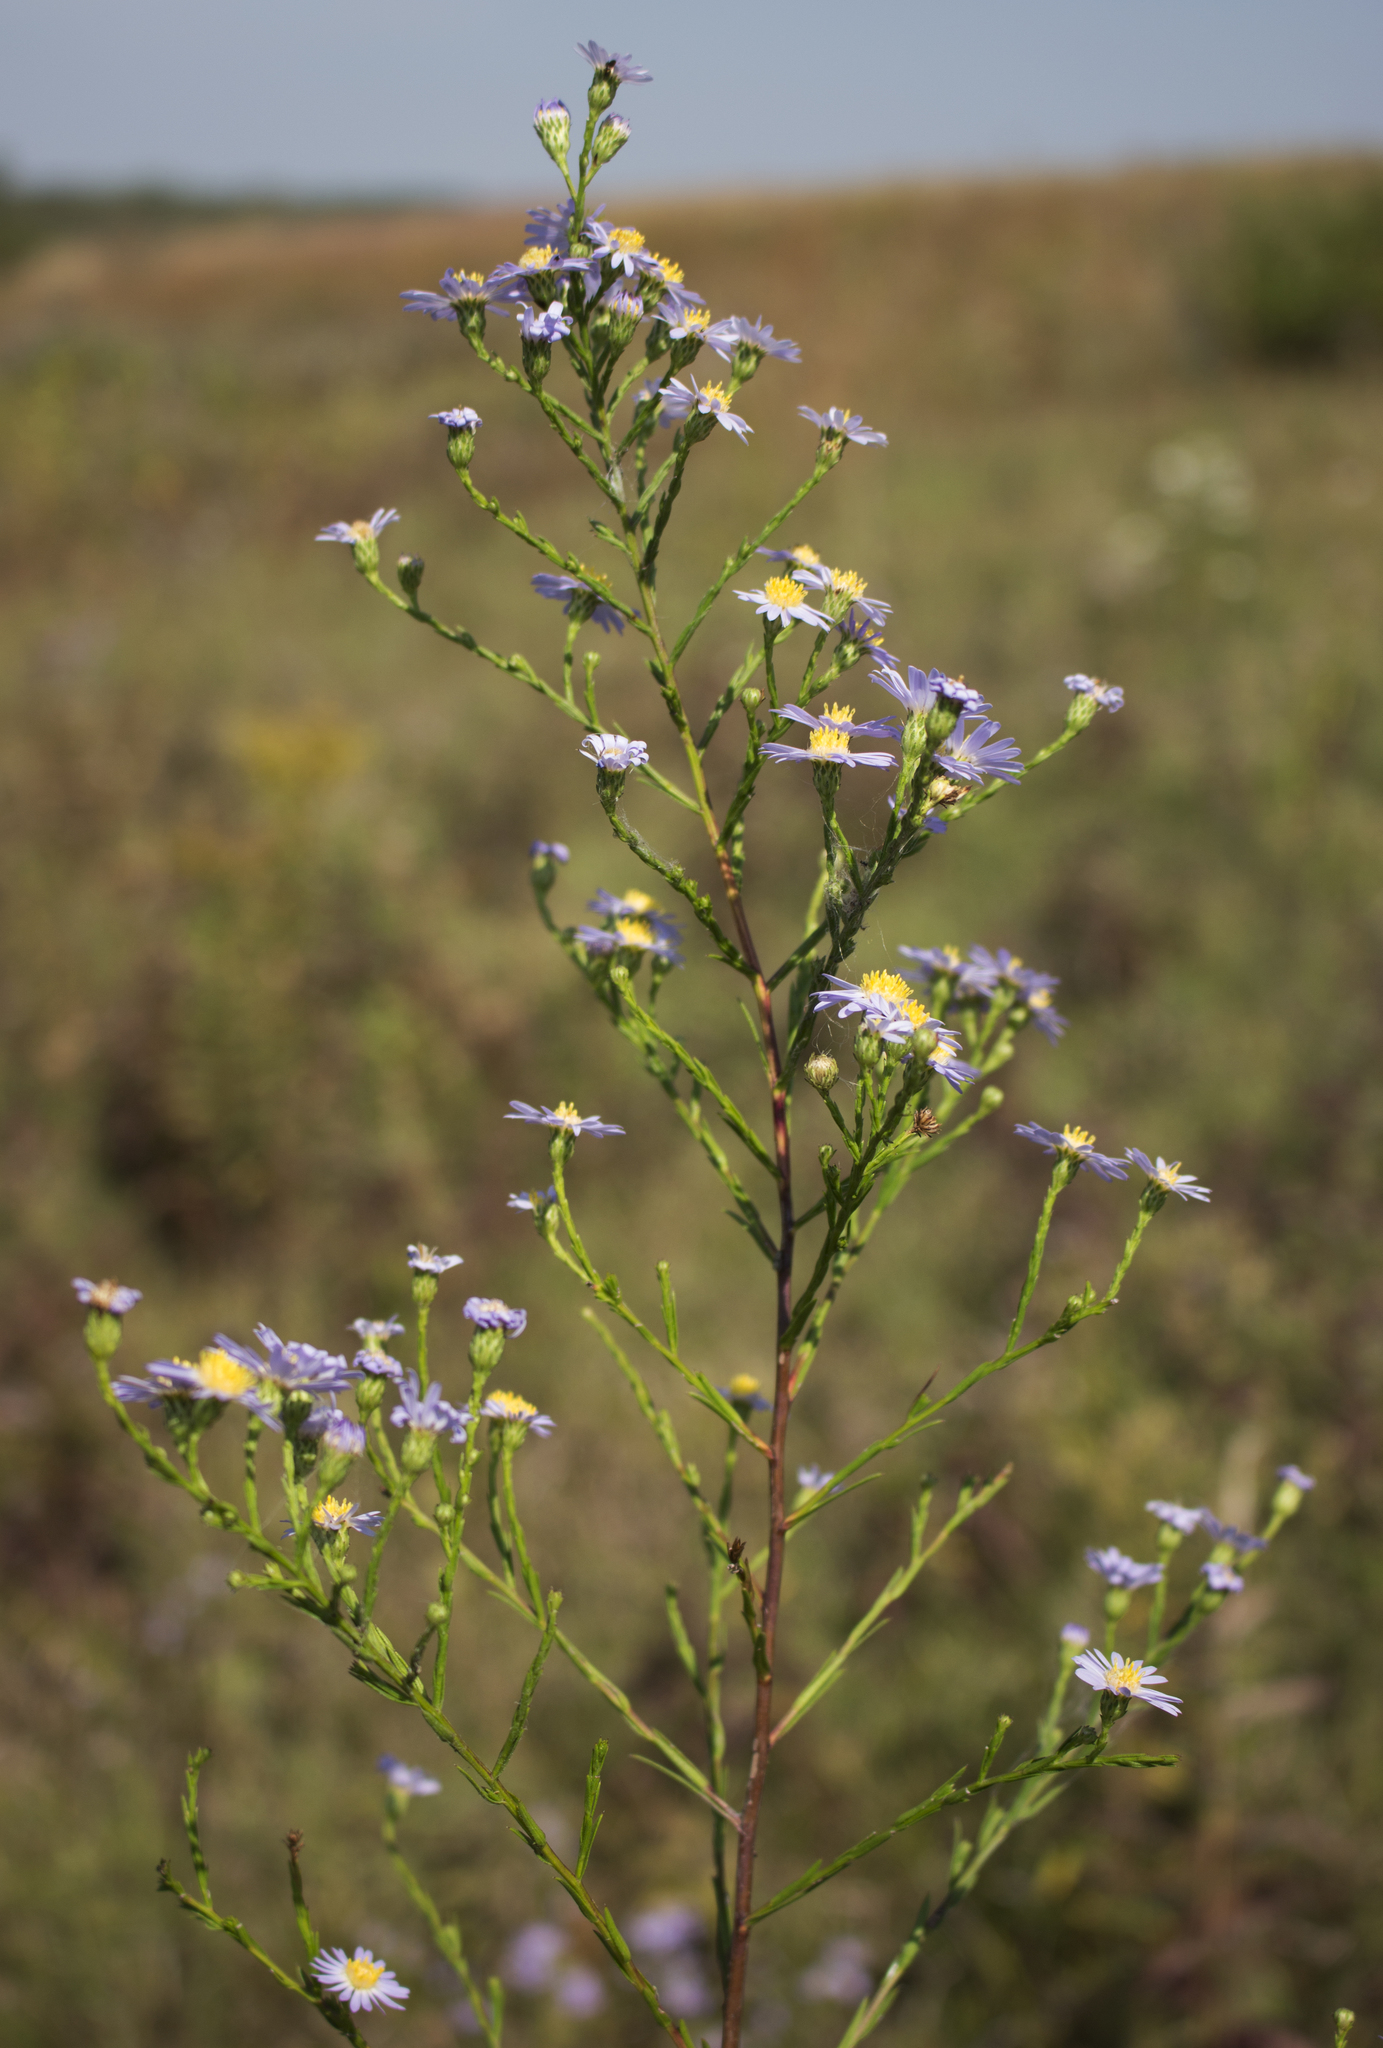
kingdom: Plantae
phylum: Tracheophyta
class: Magnoliopsida
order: Asterales
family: Asteraceae
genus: Symphyotrichum
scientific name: Symphyotrichum oolentangiense
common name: Azure aster
